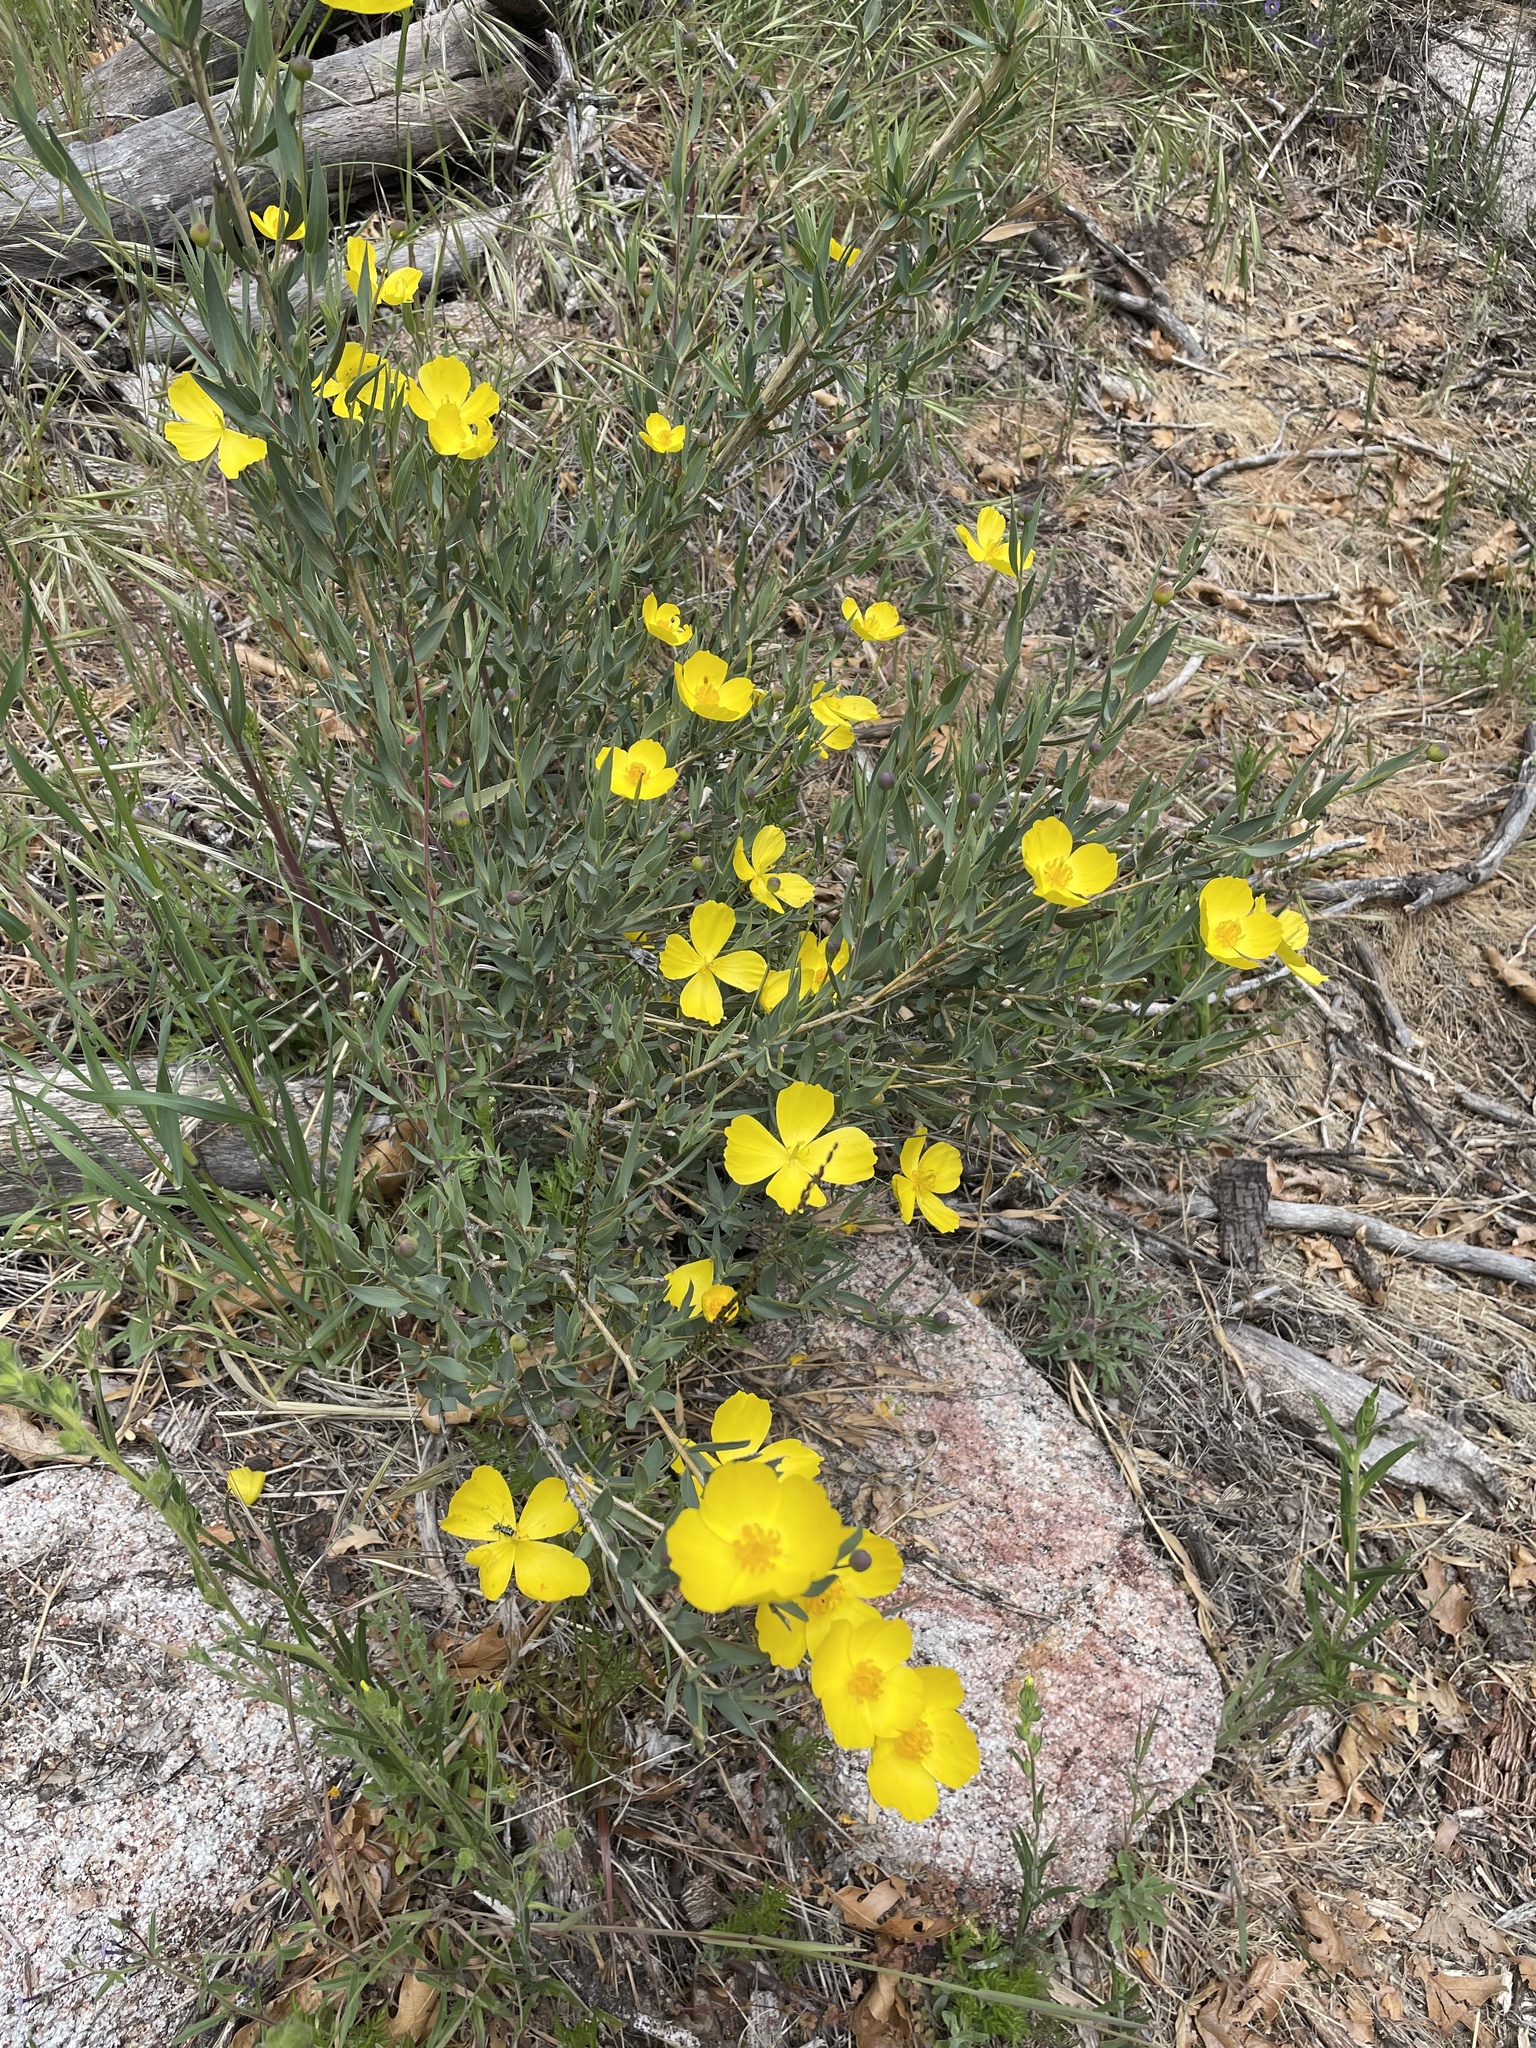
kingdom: Plantae
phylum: Tracheophyta
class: Magnoliopsida
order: Ranunculales
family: Papaveraceae
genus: Dendromecon
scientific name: Dendromecon rigida
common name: Tree poppy
